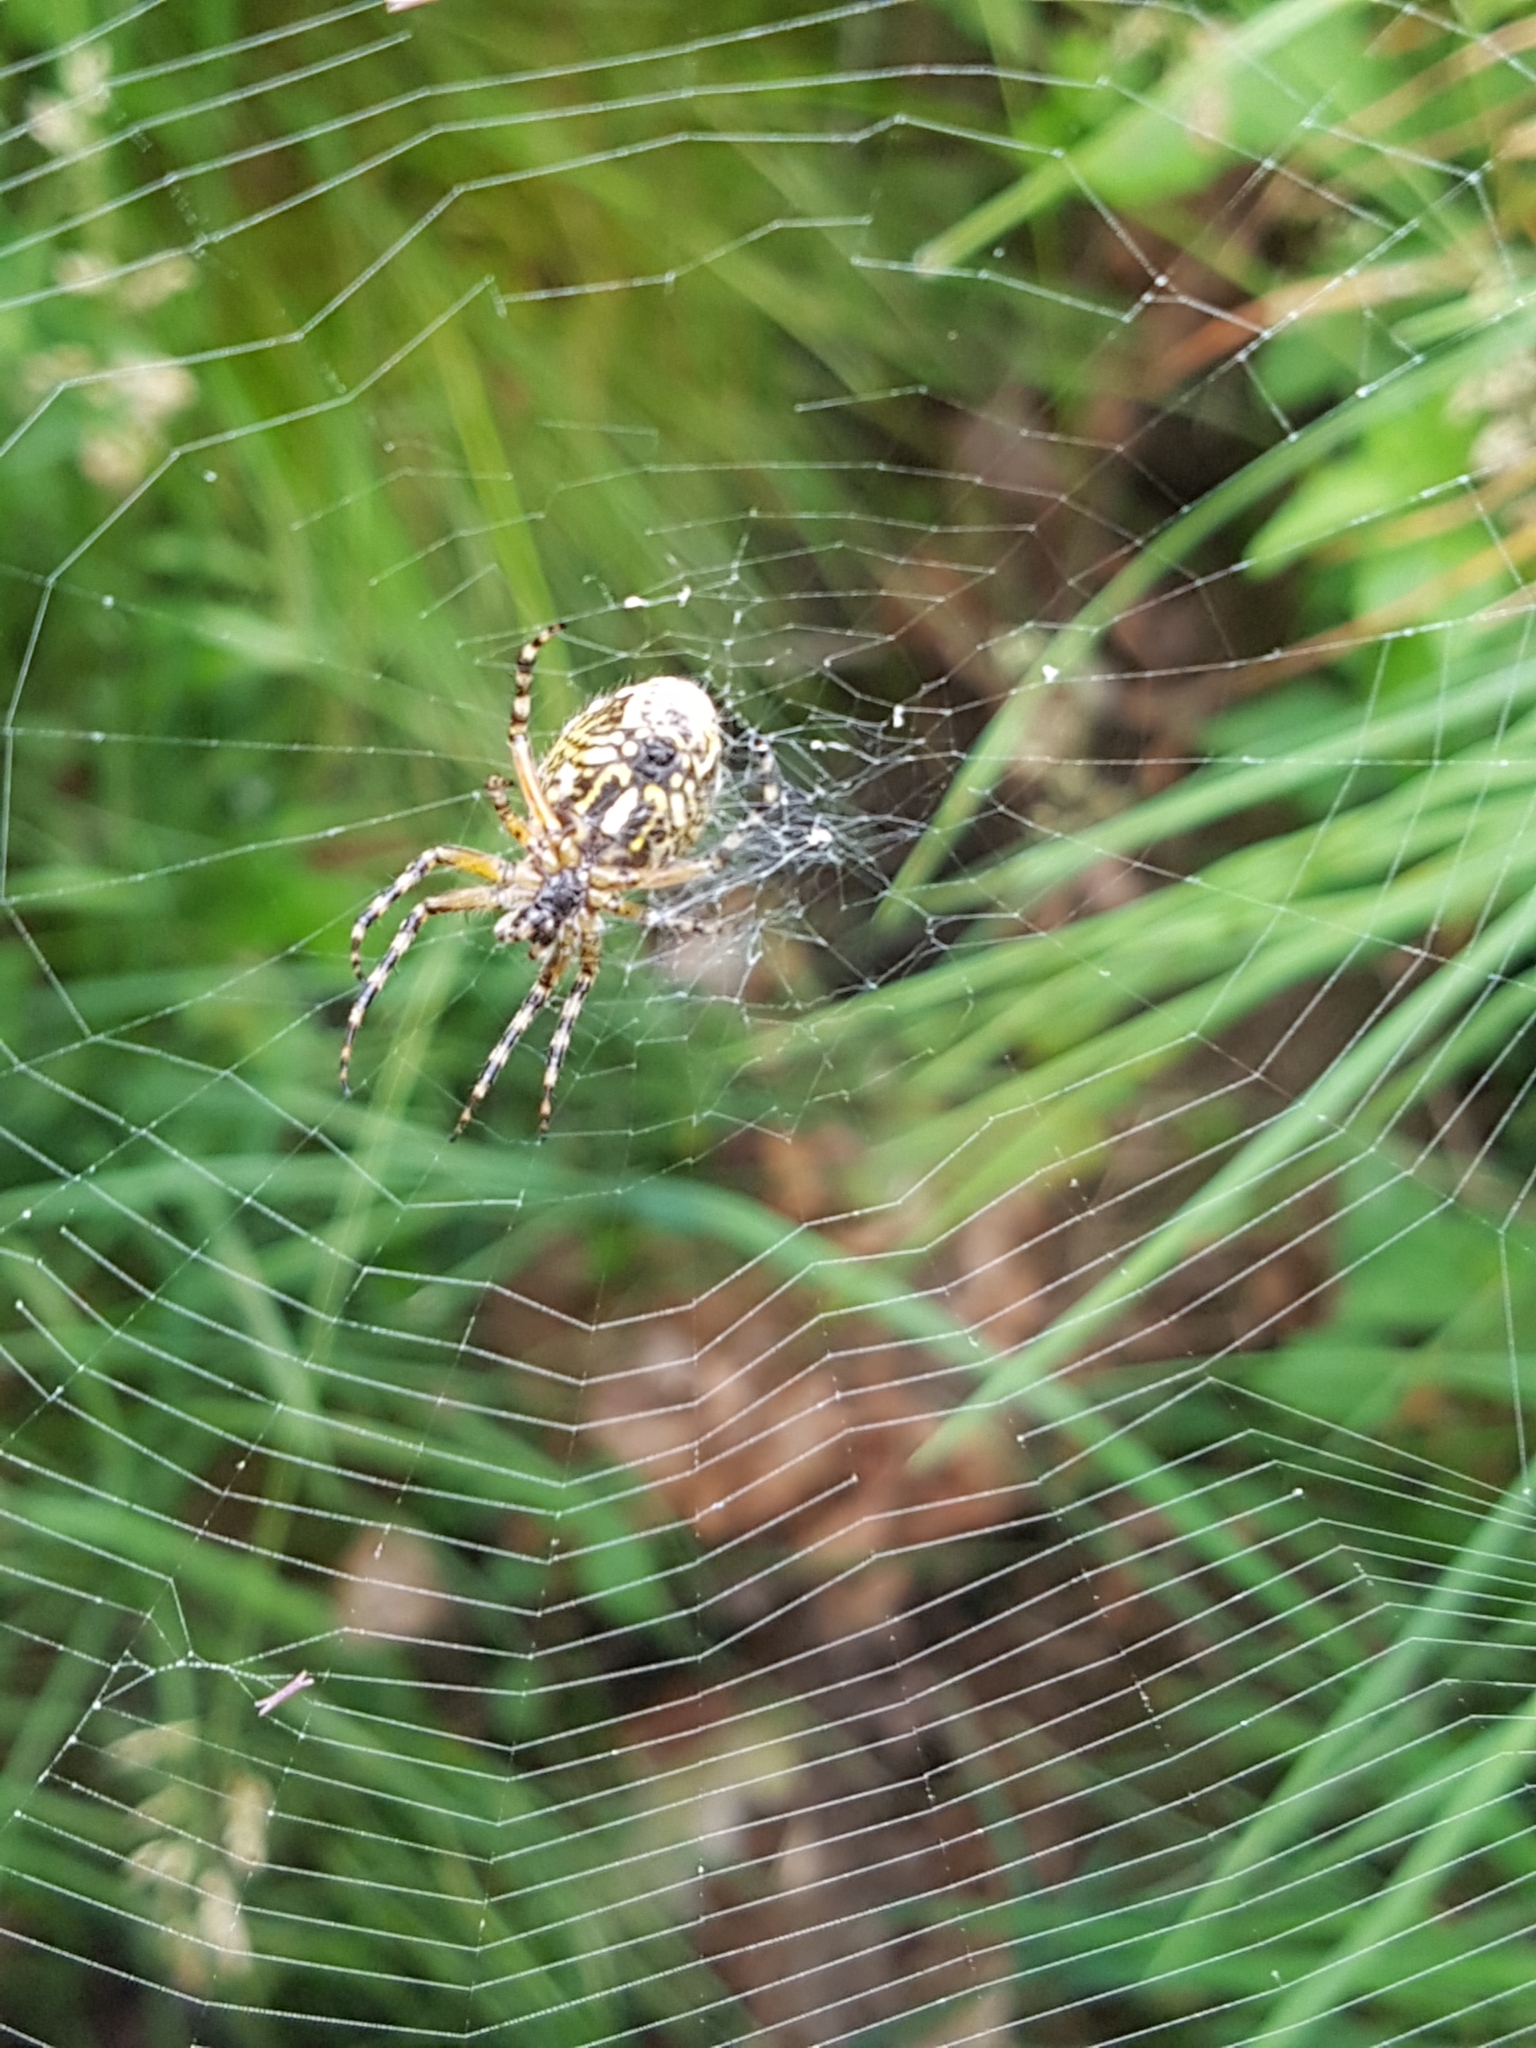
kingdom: Animalia
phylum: Arthropoda
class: Arachnida
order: Araneae
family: Araneidae
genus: Aculepeira
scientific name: Aculepeira ceropegia
